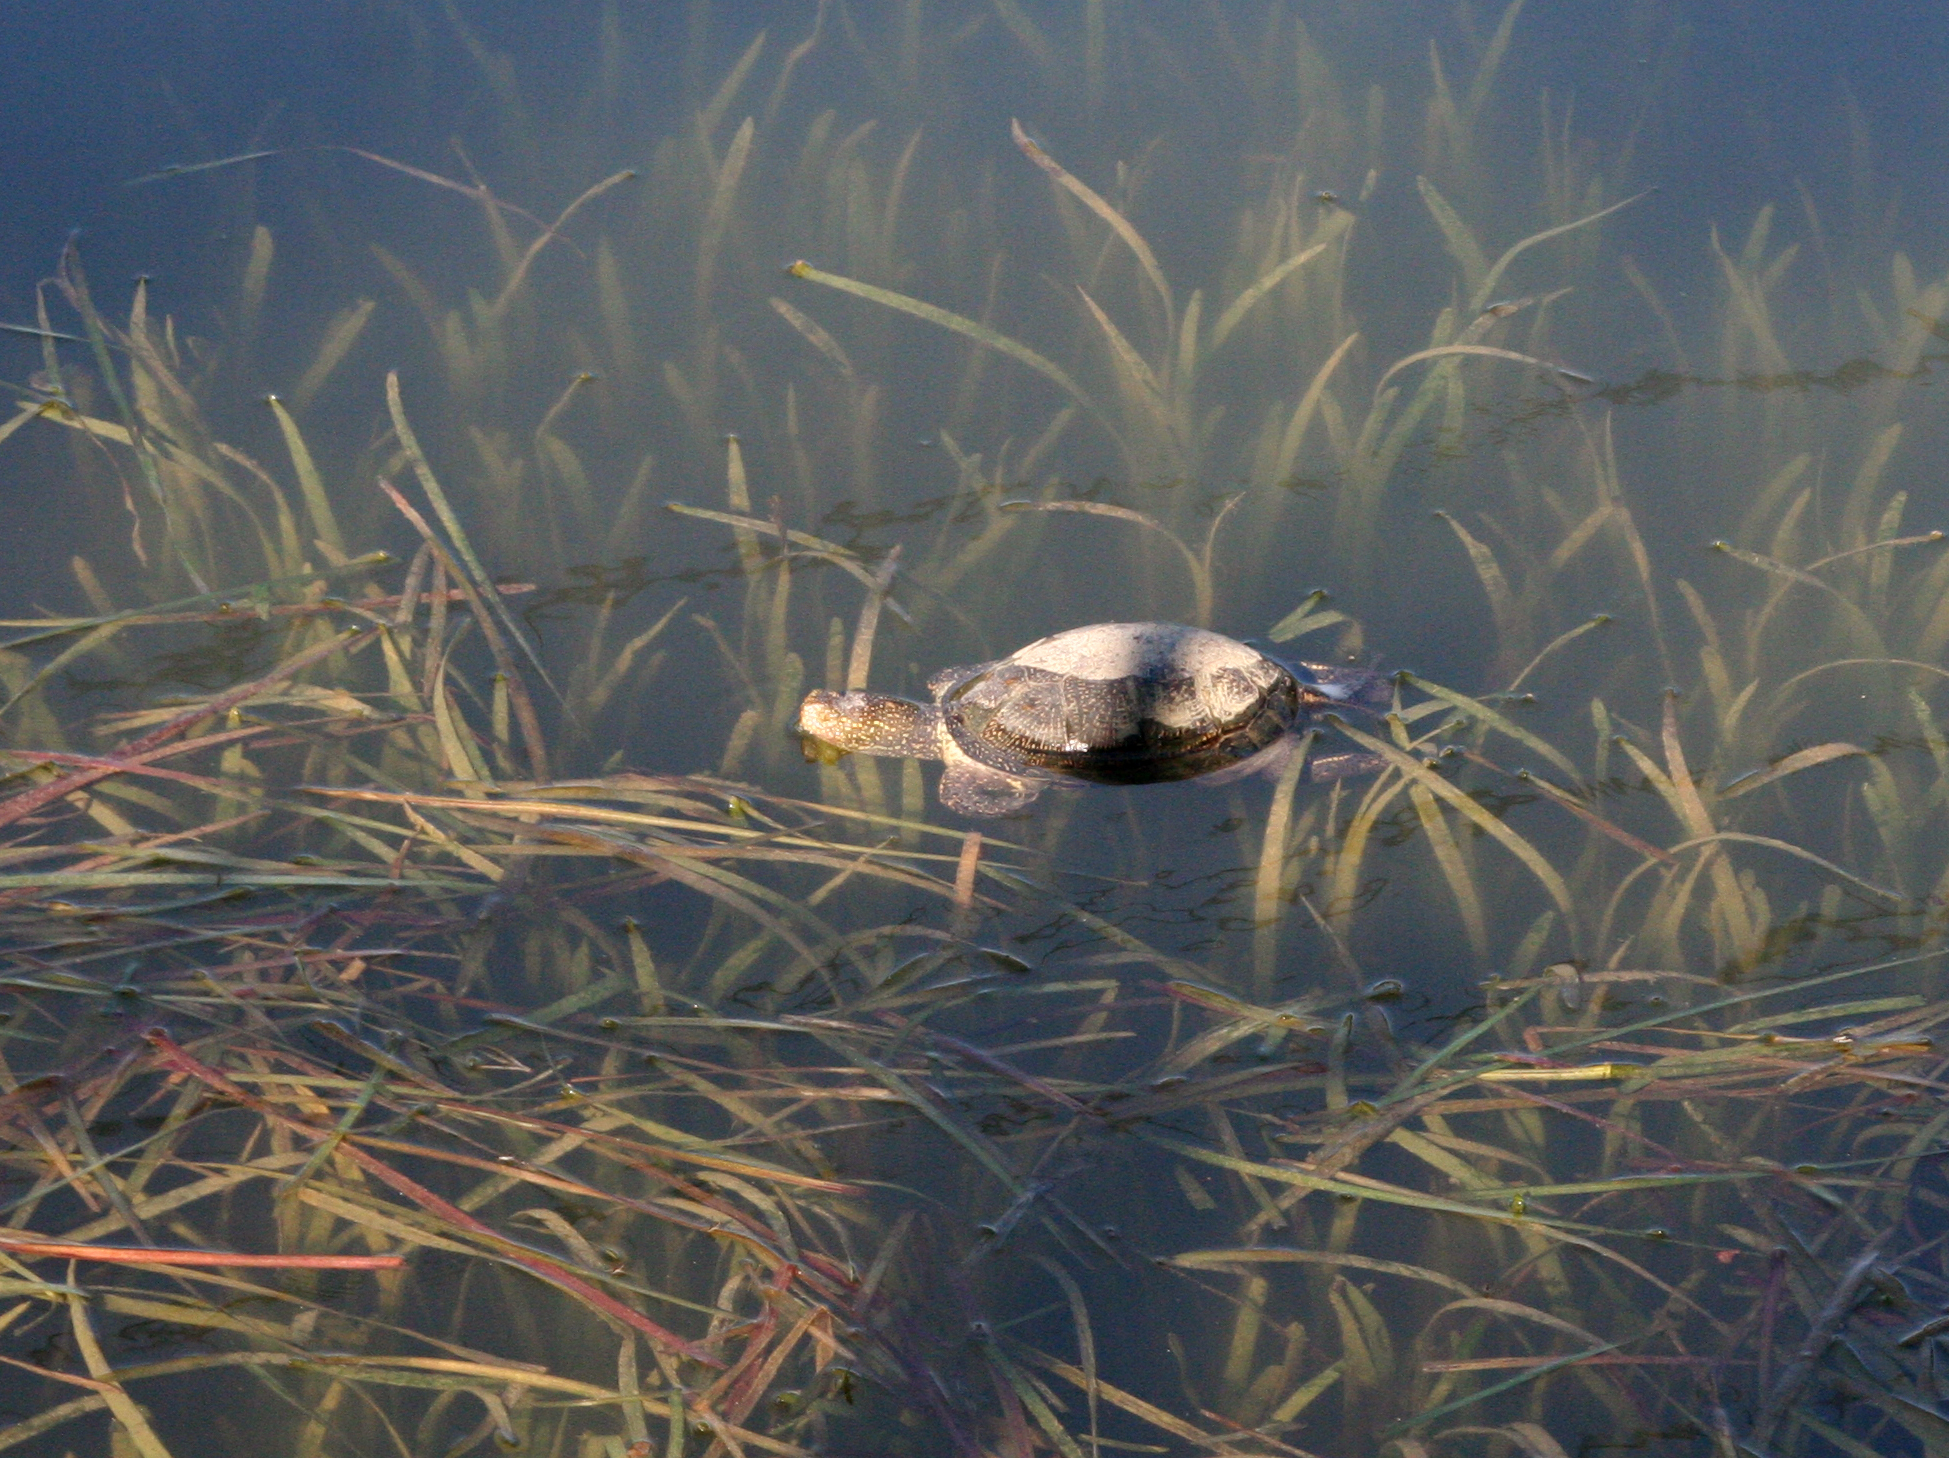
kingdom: Animalia
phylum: Chordata
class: Testudines
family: Emydidae
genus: Emys
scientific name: Emys orbicularis
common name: European pond turtle
